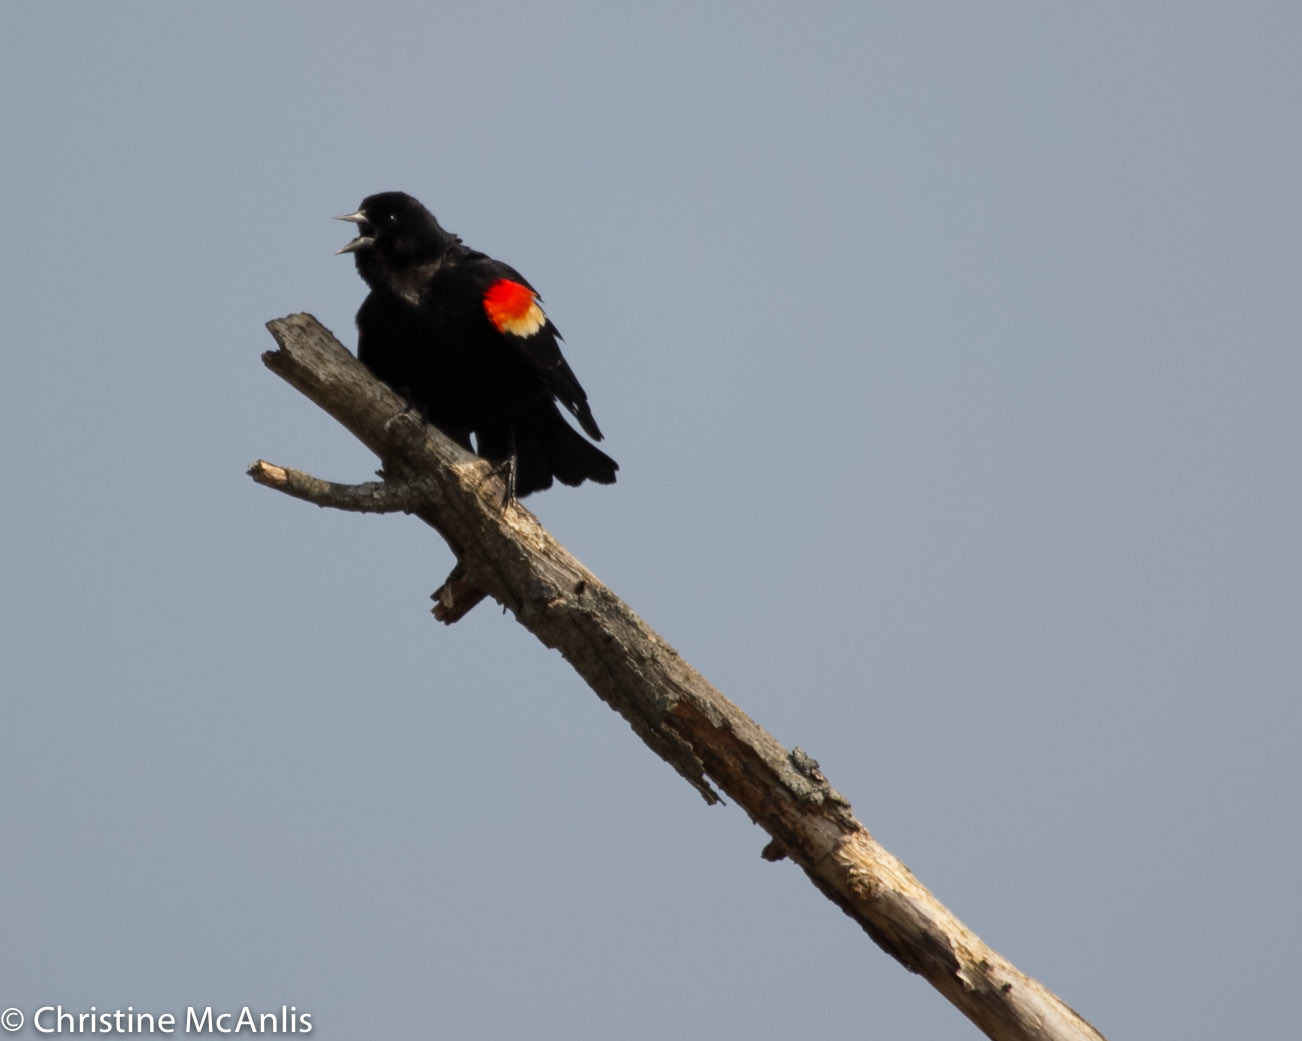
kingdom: Animalia
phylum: Chordata
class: Aves
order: Passeriformes
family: Icteridae
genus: Agelaius
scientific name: Agelaius phoeniceus
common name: Red-winged blackbird
